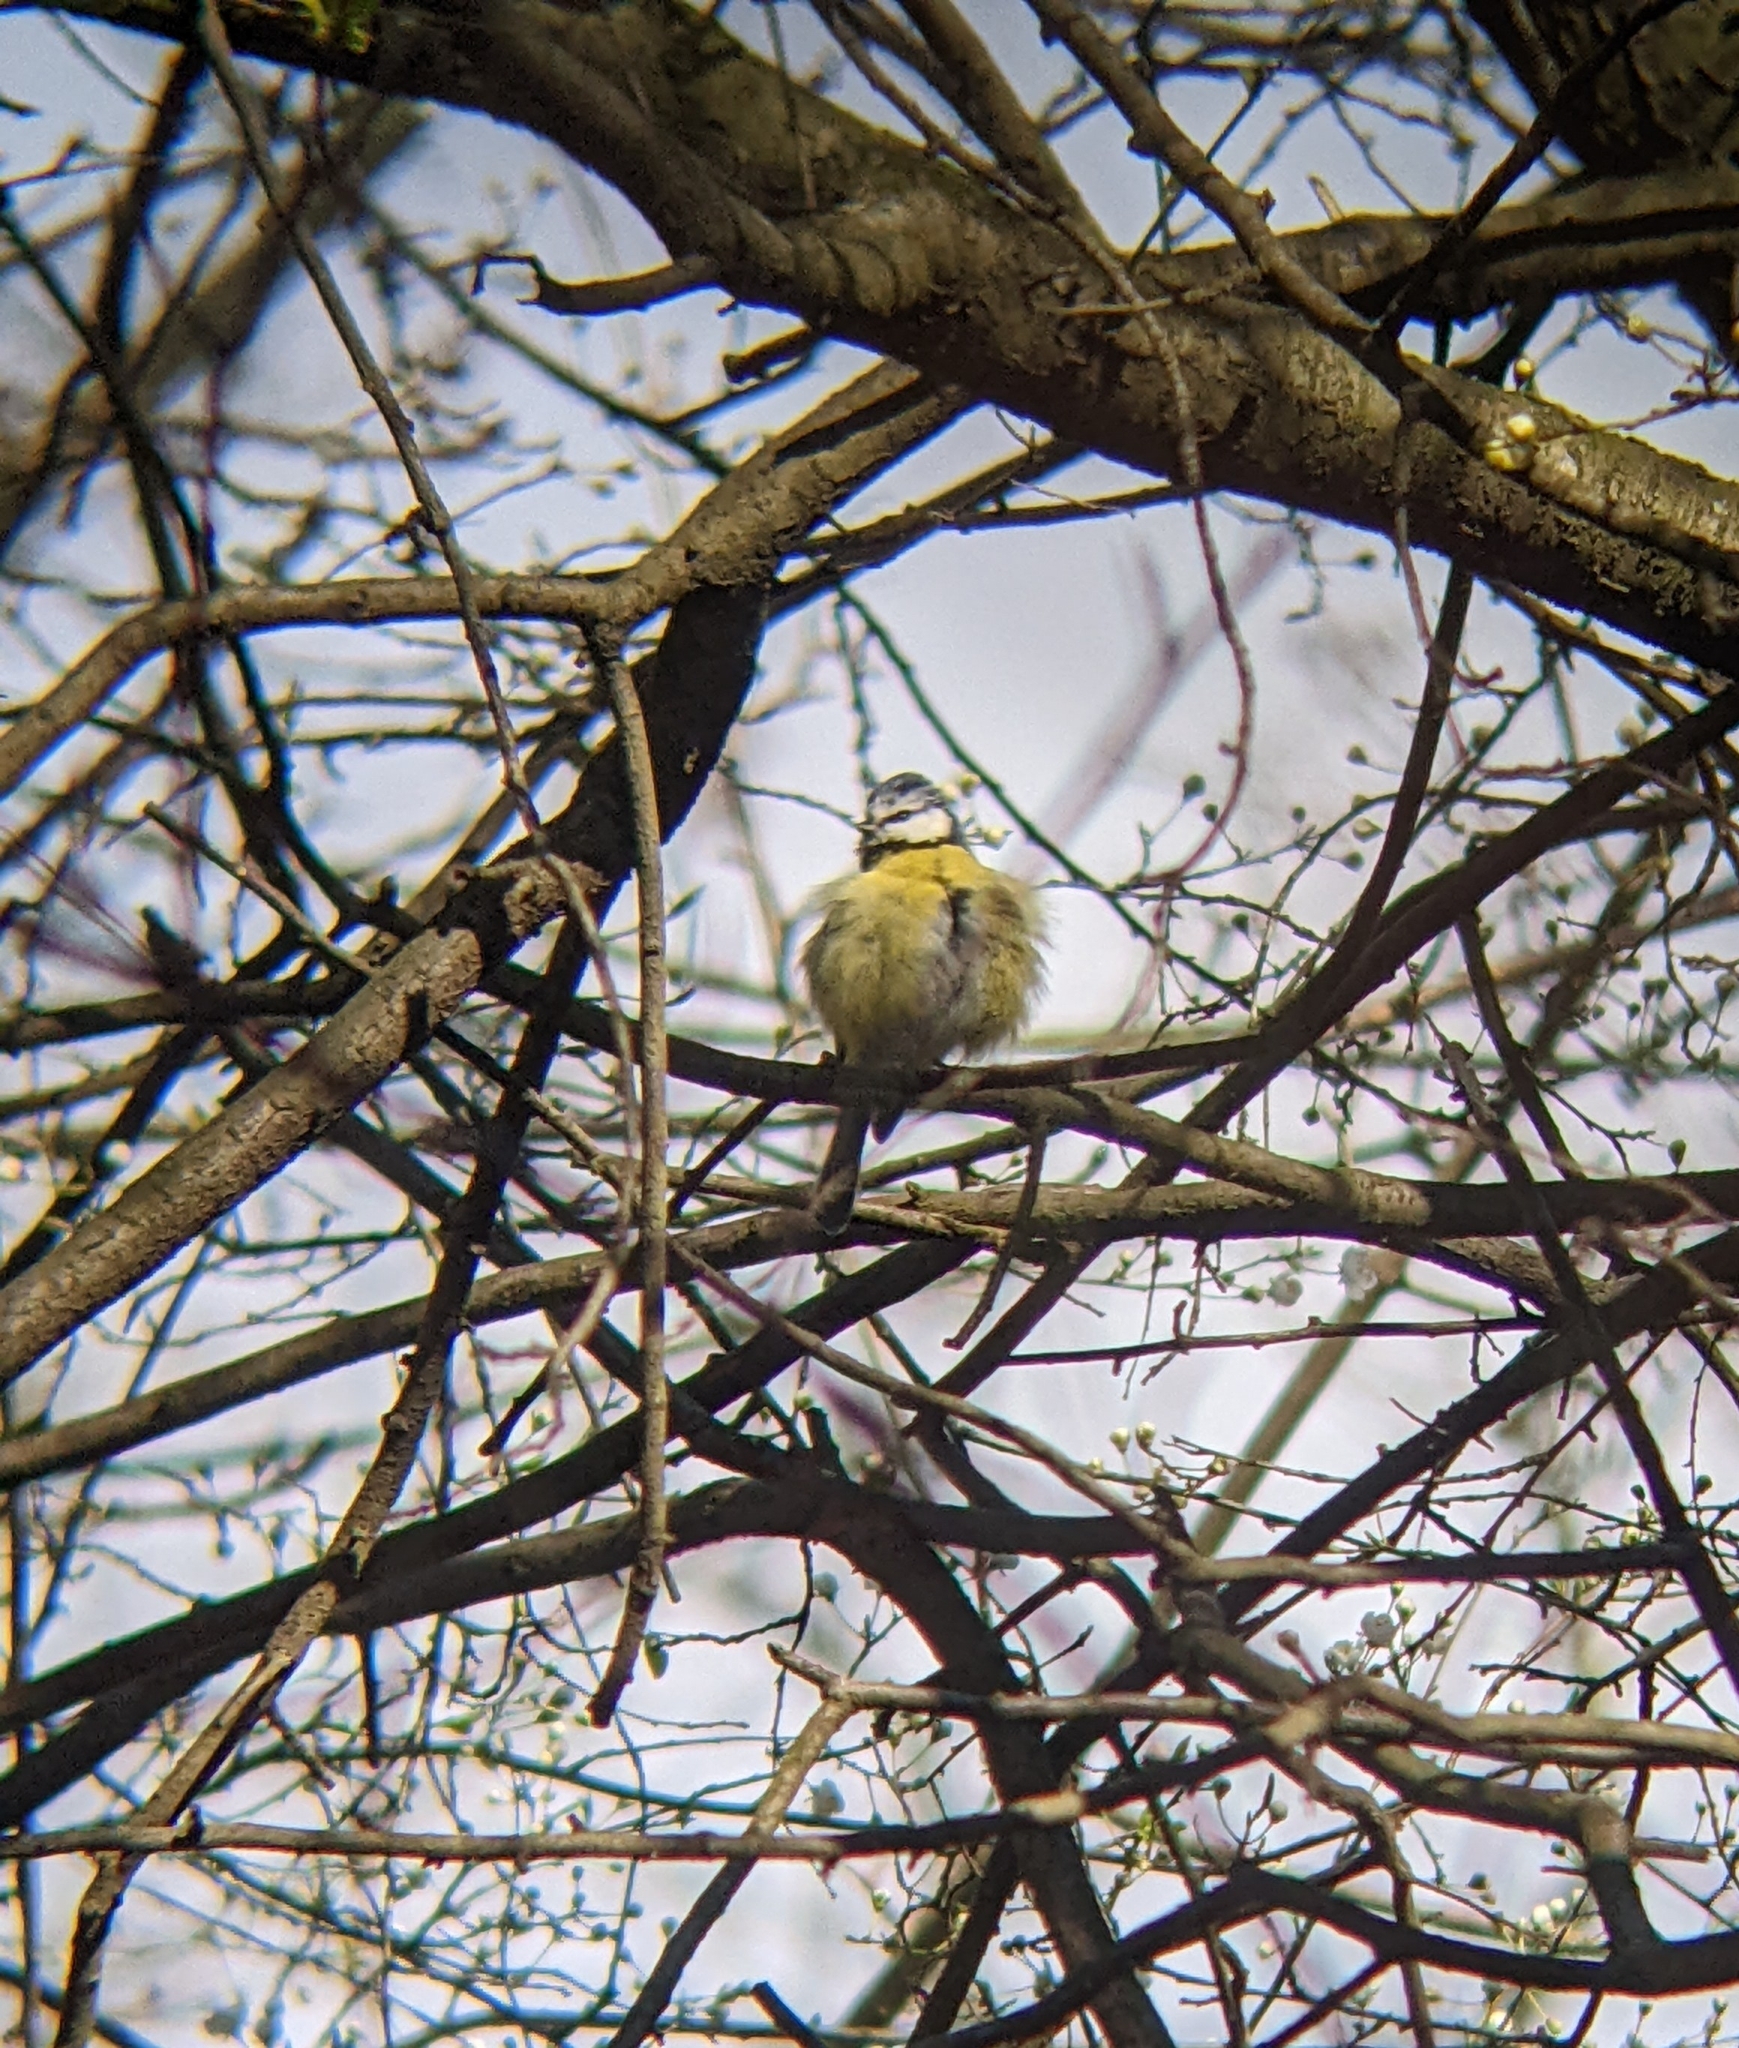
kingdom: Animalia
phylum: Chordata
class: Aves
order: Passeriformes
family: Paridae
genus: Cyanistes
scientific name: Cyanistes caeruleus
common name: Eurasian blue tit
